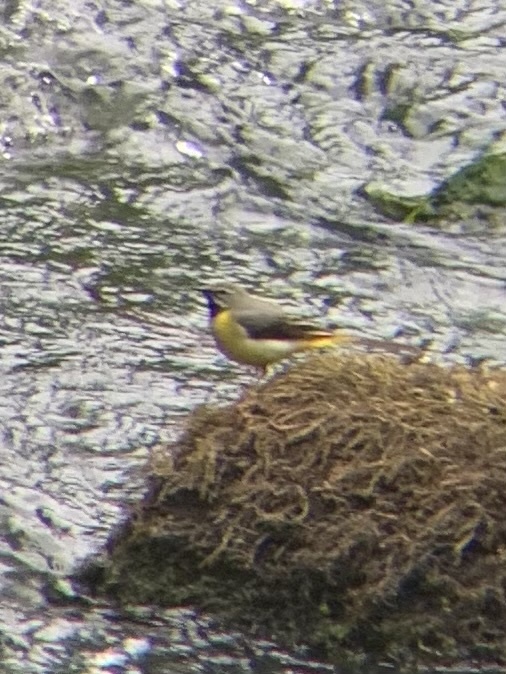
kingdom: Animalia
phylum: Chordata
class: Aves
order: Passeriformes
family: Motacillidae
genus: Motacilla
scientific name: Motacilla cinerea
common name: Grey wagtail
